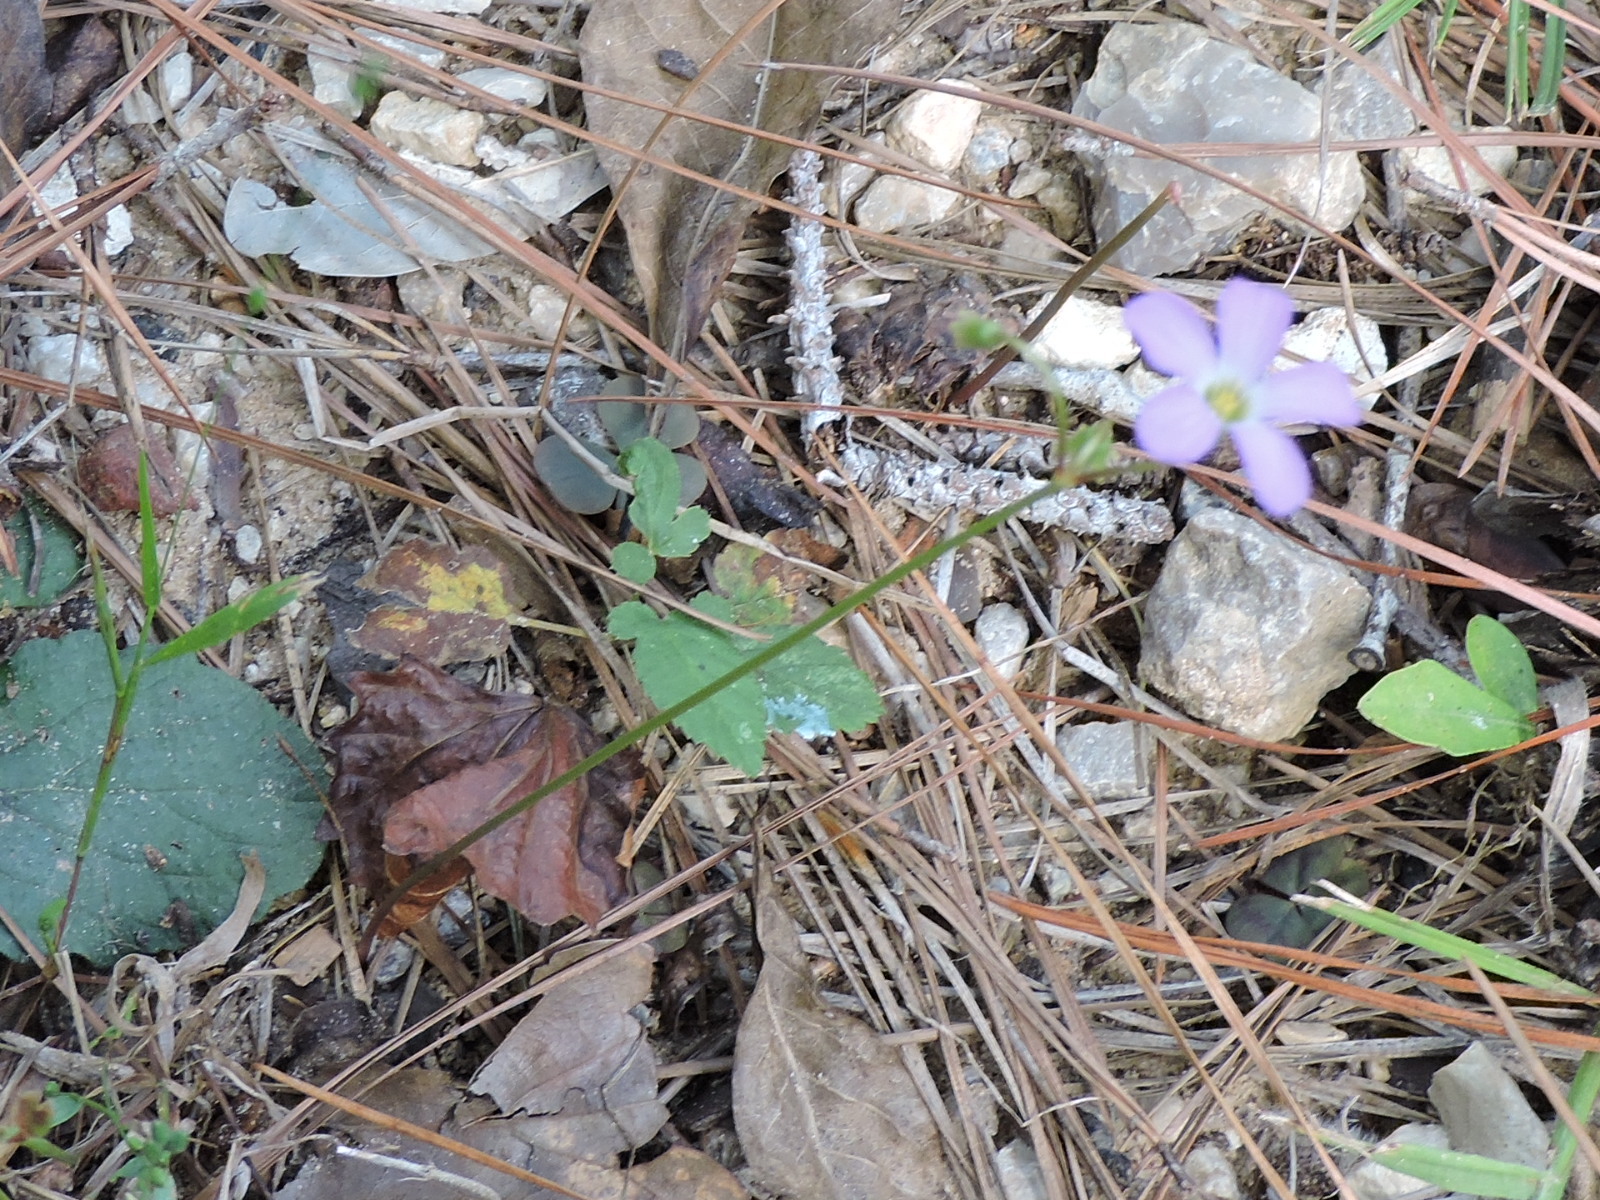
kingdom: Plantae
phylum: Tracheophyta
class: Magnoliopsida
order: Oxalidales
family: Oxalidaceae
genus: Oxalis
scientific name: Oxalis violacea
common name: Violet wood-sorrel
